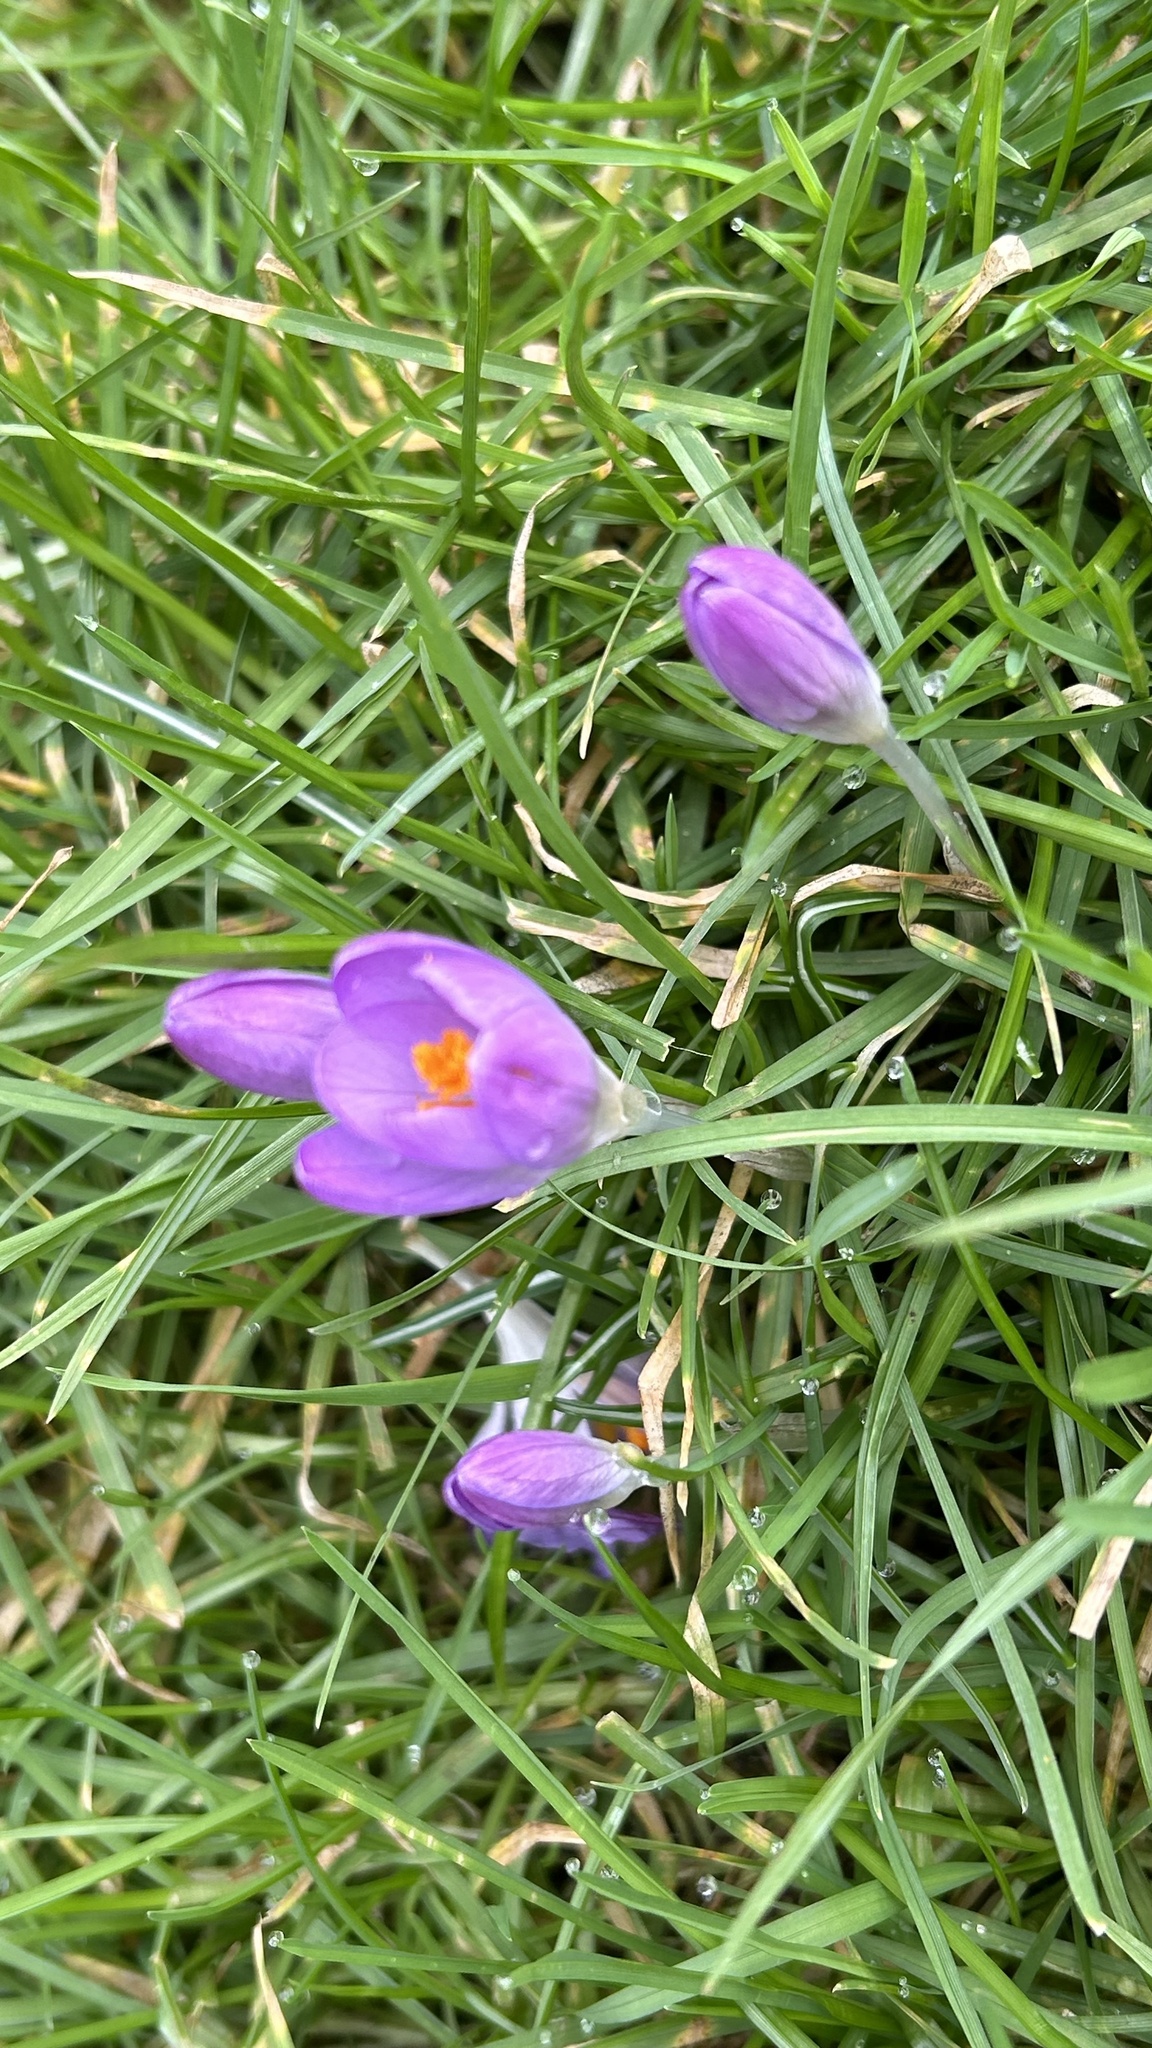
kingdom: Plantae
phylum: Tracheophyta
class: Liliopsida
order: Asparagales
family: Iridaceae
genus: Crocus
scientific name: Crocus tommasinianus
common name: Early crocus
